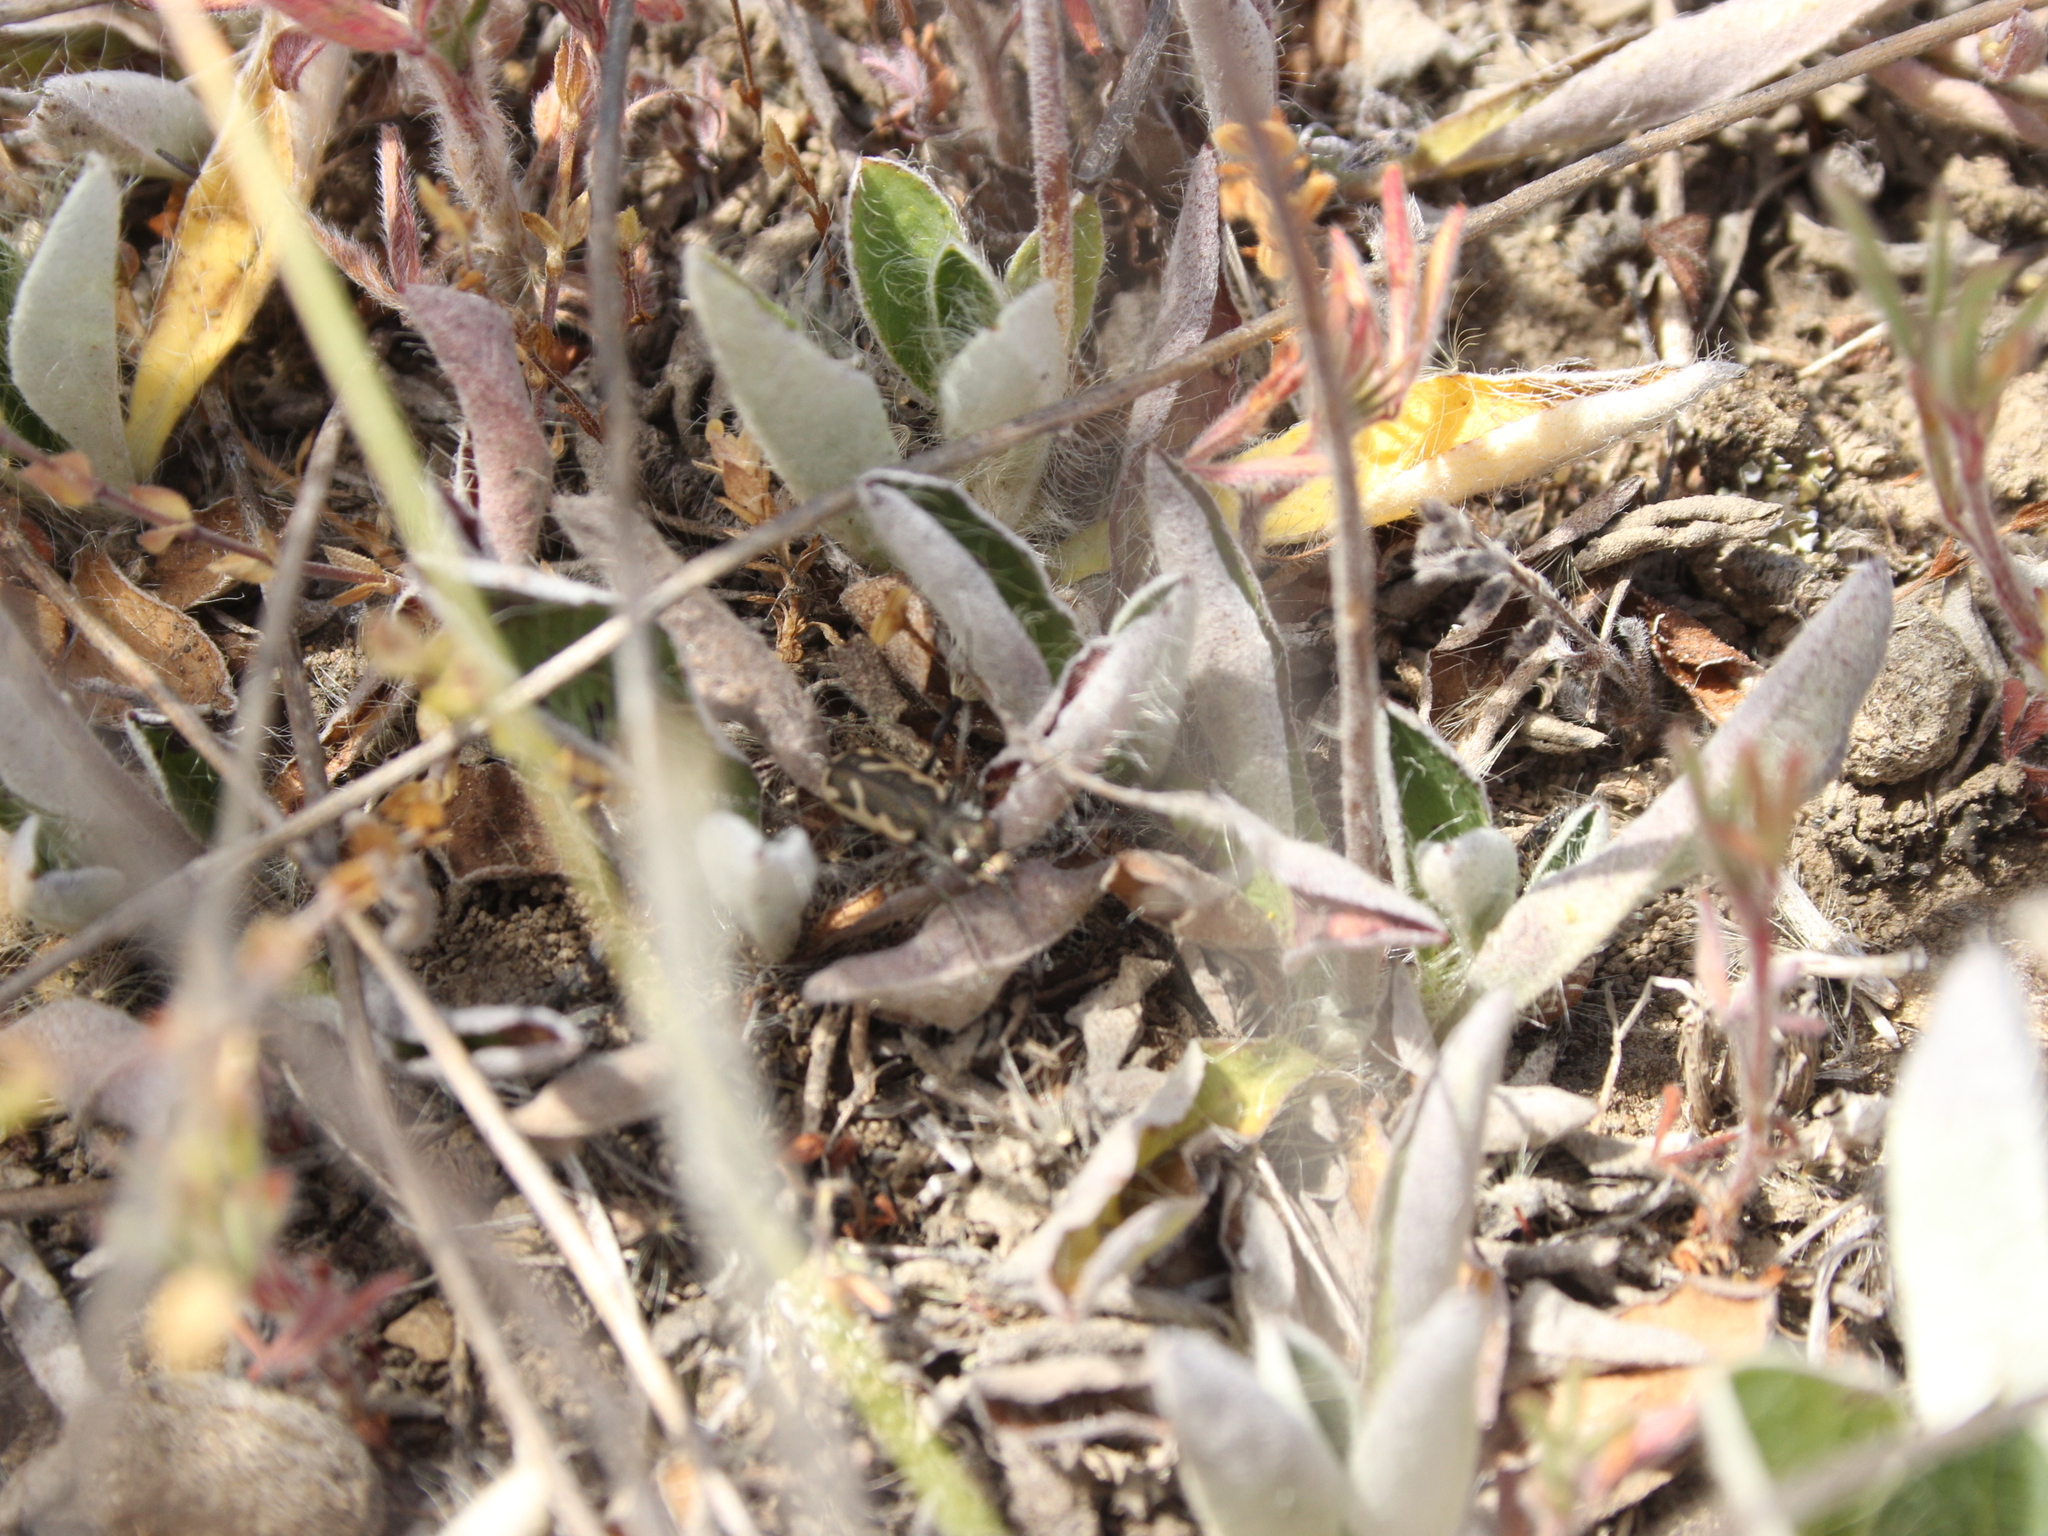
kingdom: Animalia
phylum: Arthropoda
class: Insecta
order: Coleoptera
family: Carabidae
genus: Neocicindela
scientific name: Neocicindela latecincta
